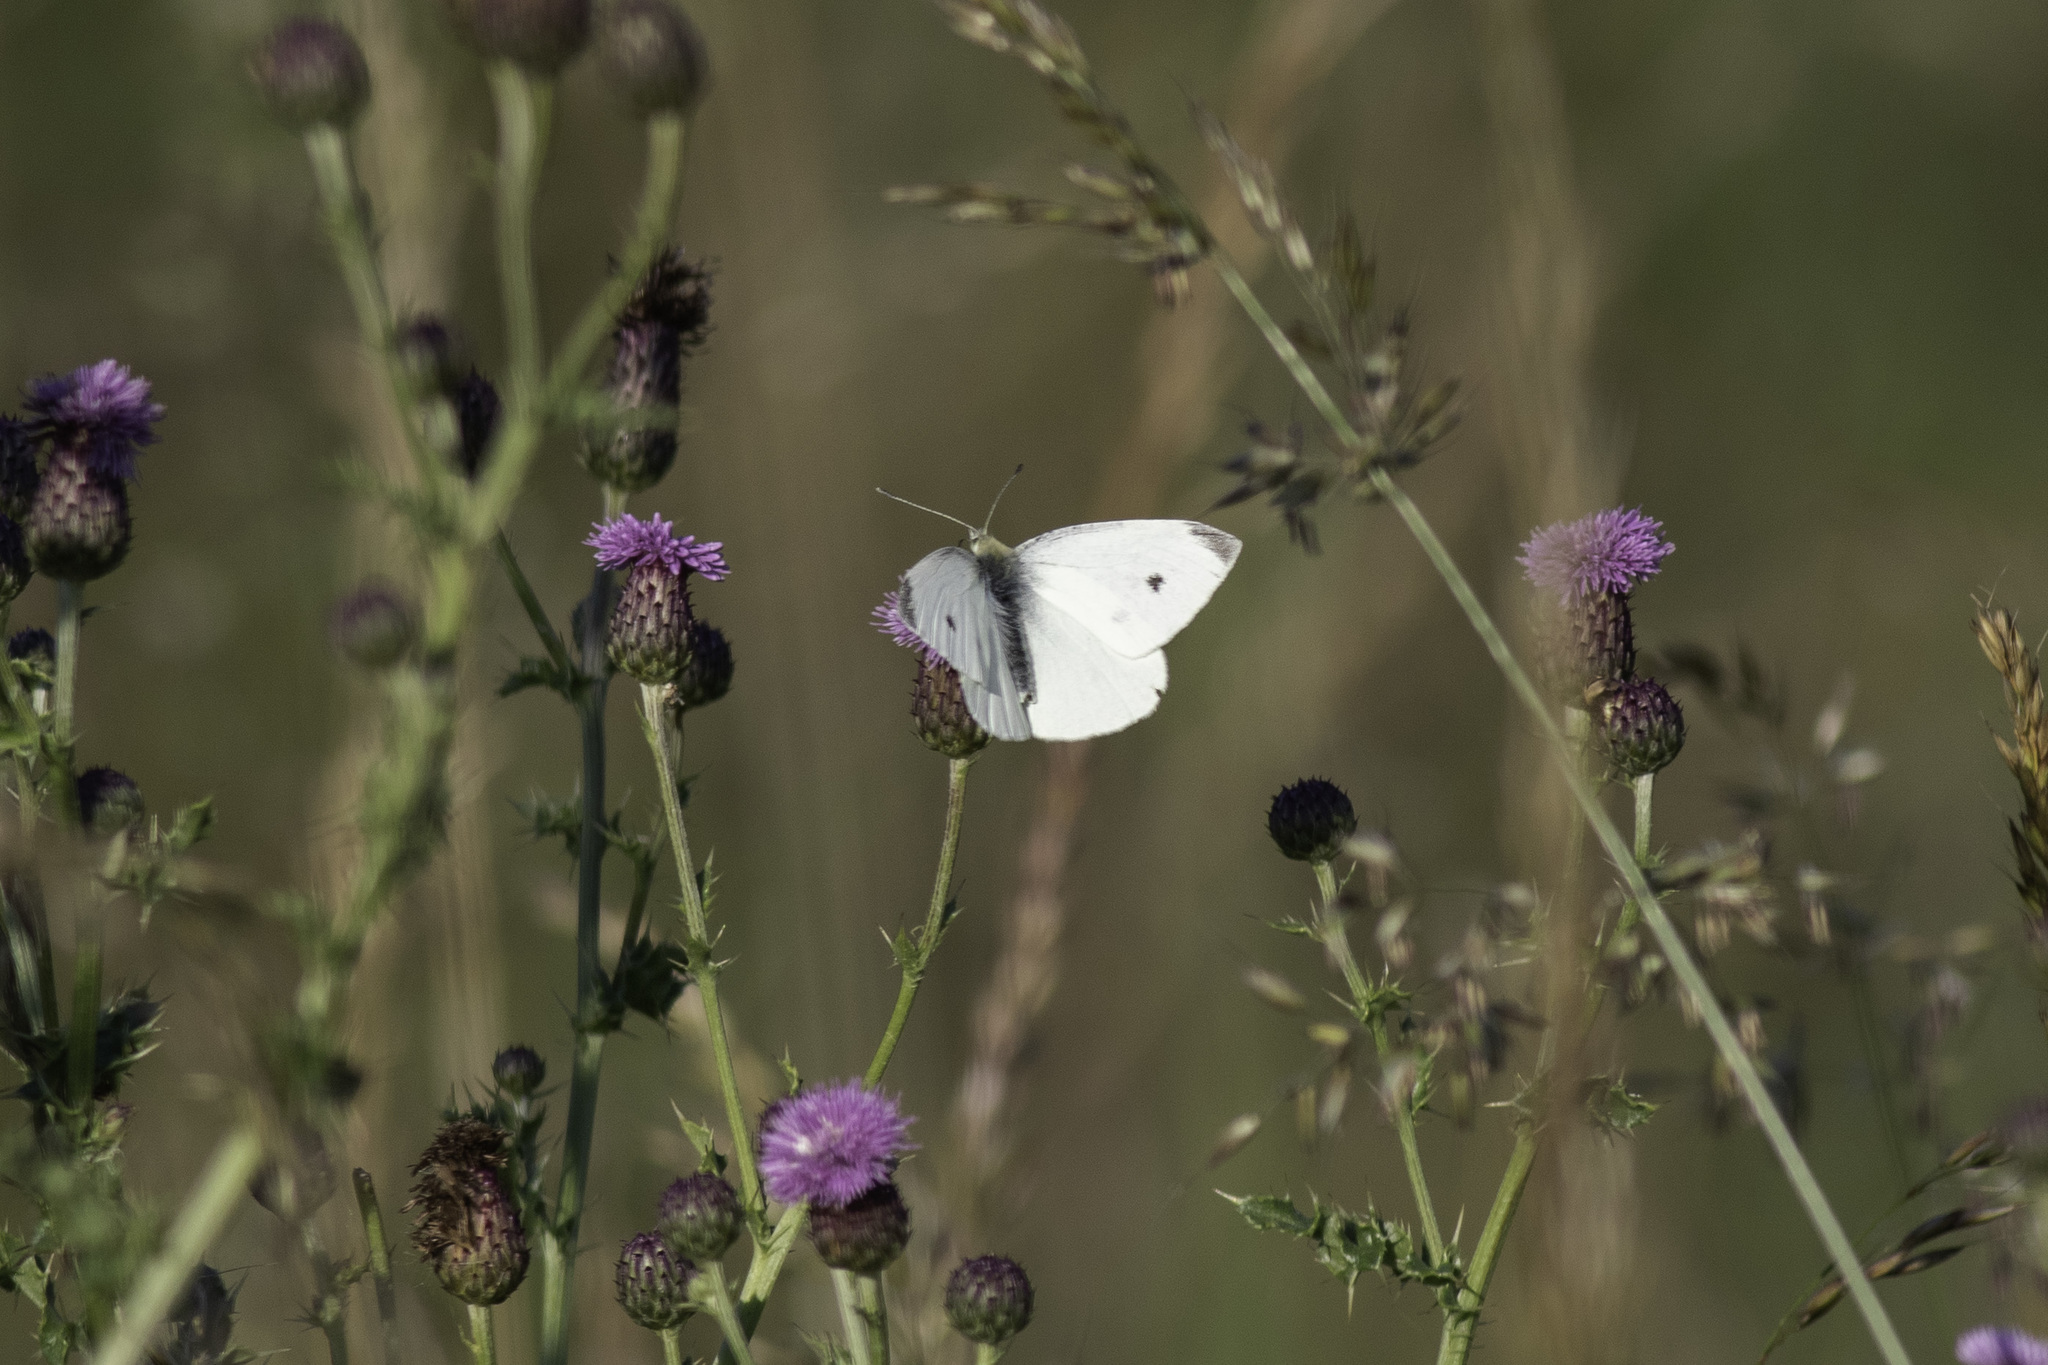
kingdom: Animalia
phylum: Arthropoda
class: Insecta
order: Lepidoptera
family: Pieridae
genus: Pieris
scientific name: Pieris rapae
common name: Small white
